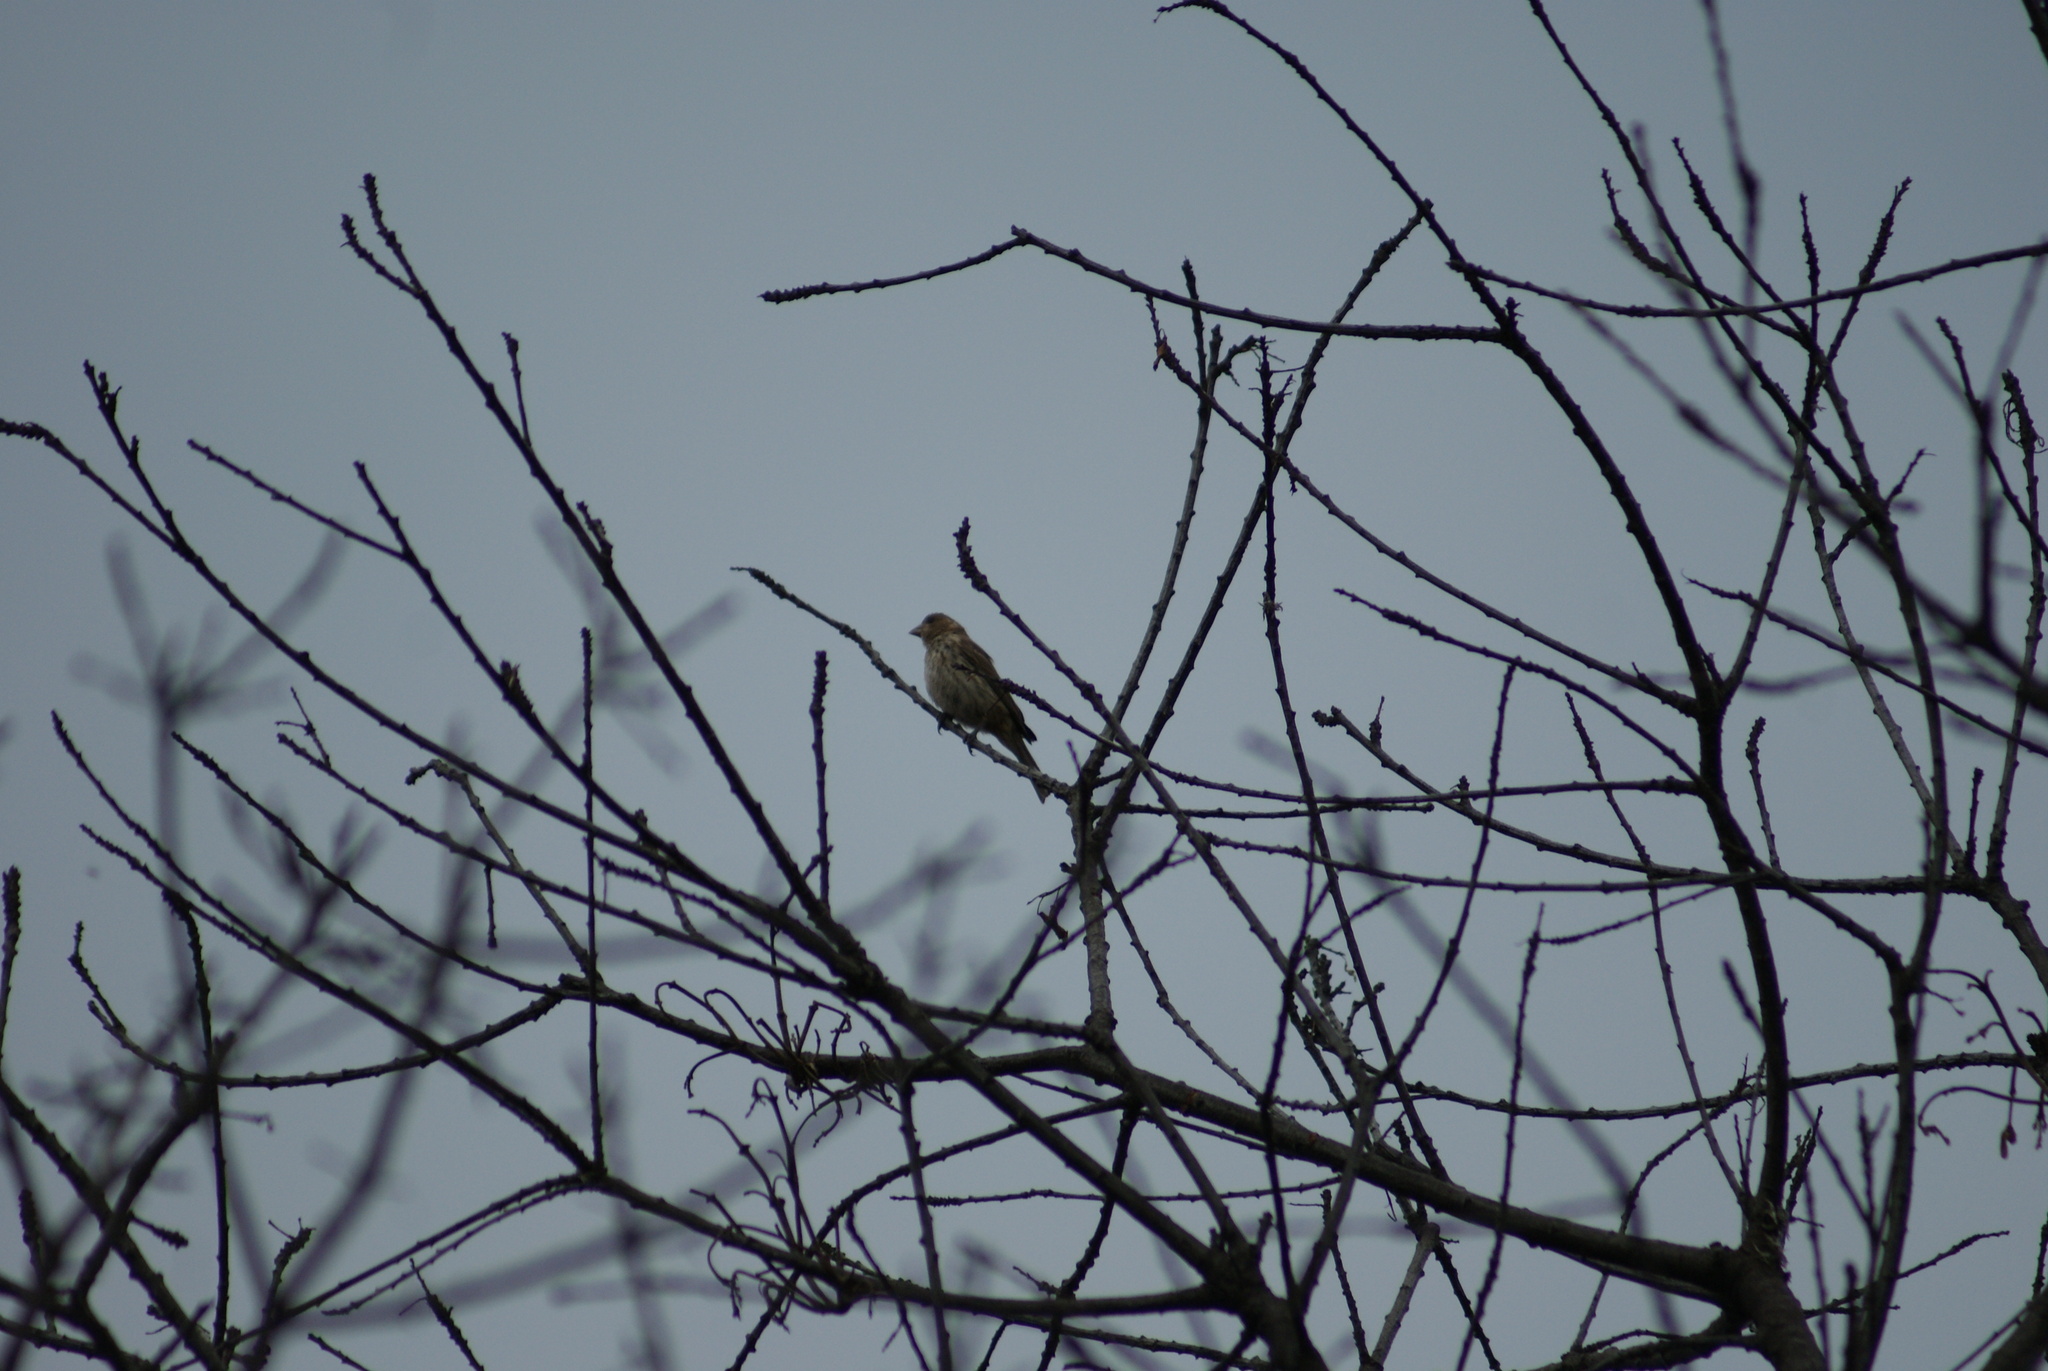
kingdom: Animalia
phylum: Chordata
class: Aves
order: Passeriformes
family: Fringillidae
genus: Haemorhous
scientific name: Haemorhous mexicanus
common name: House finch
